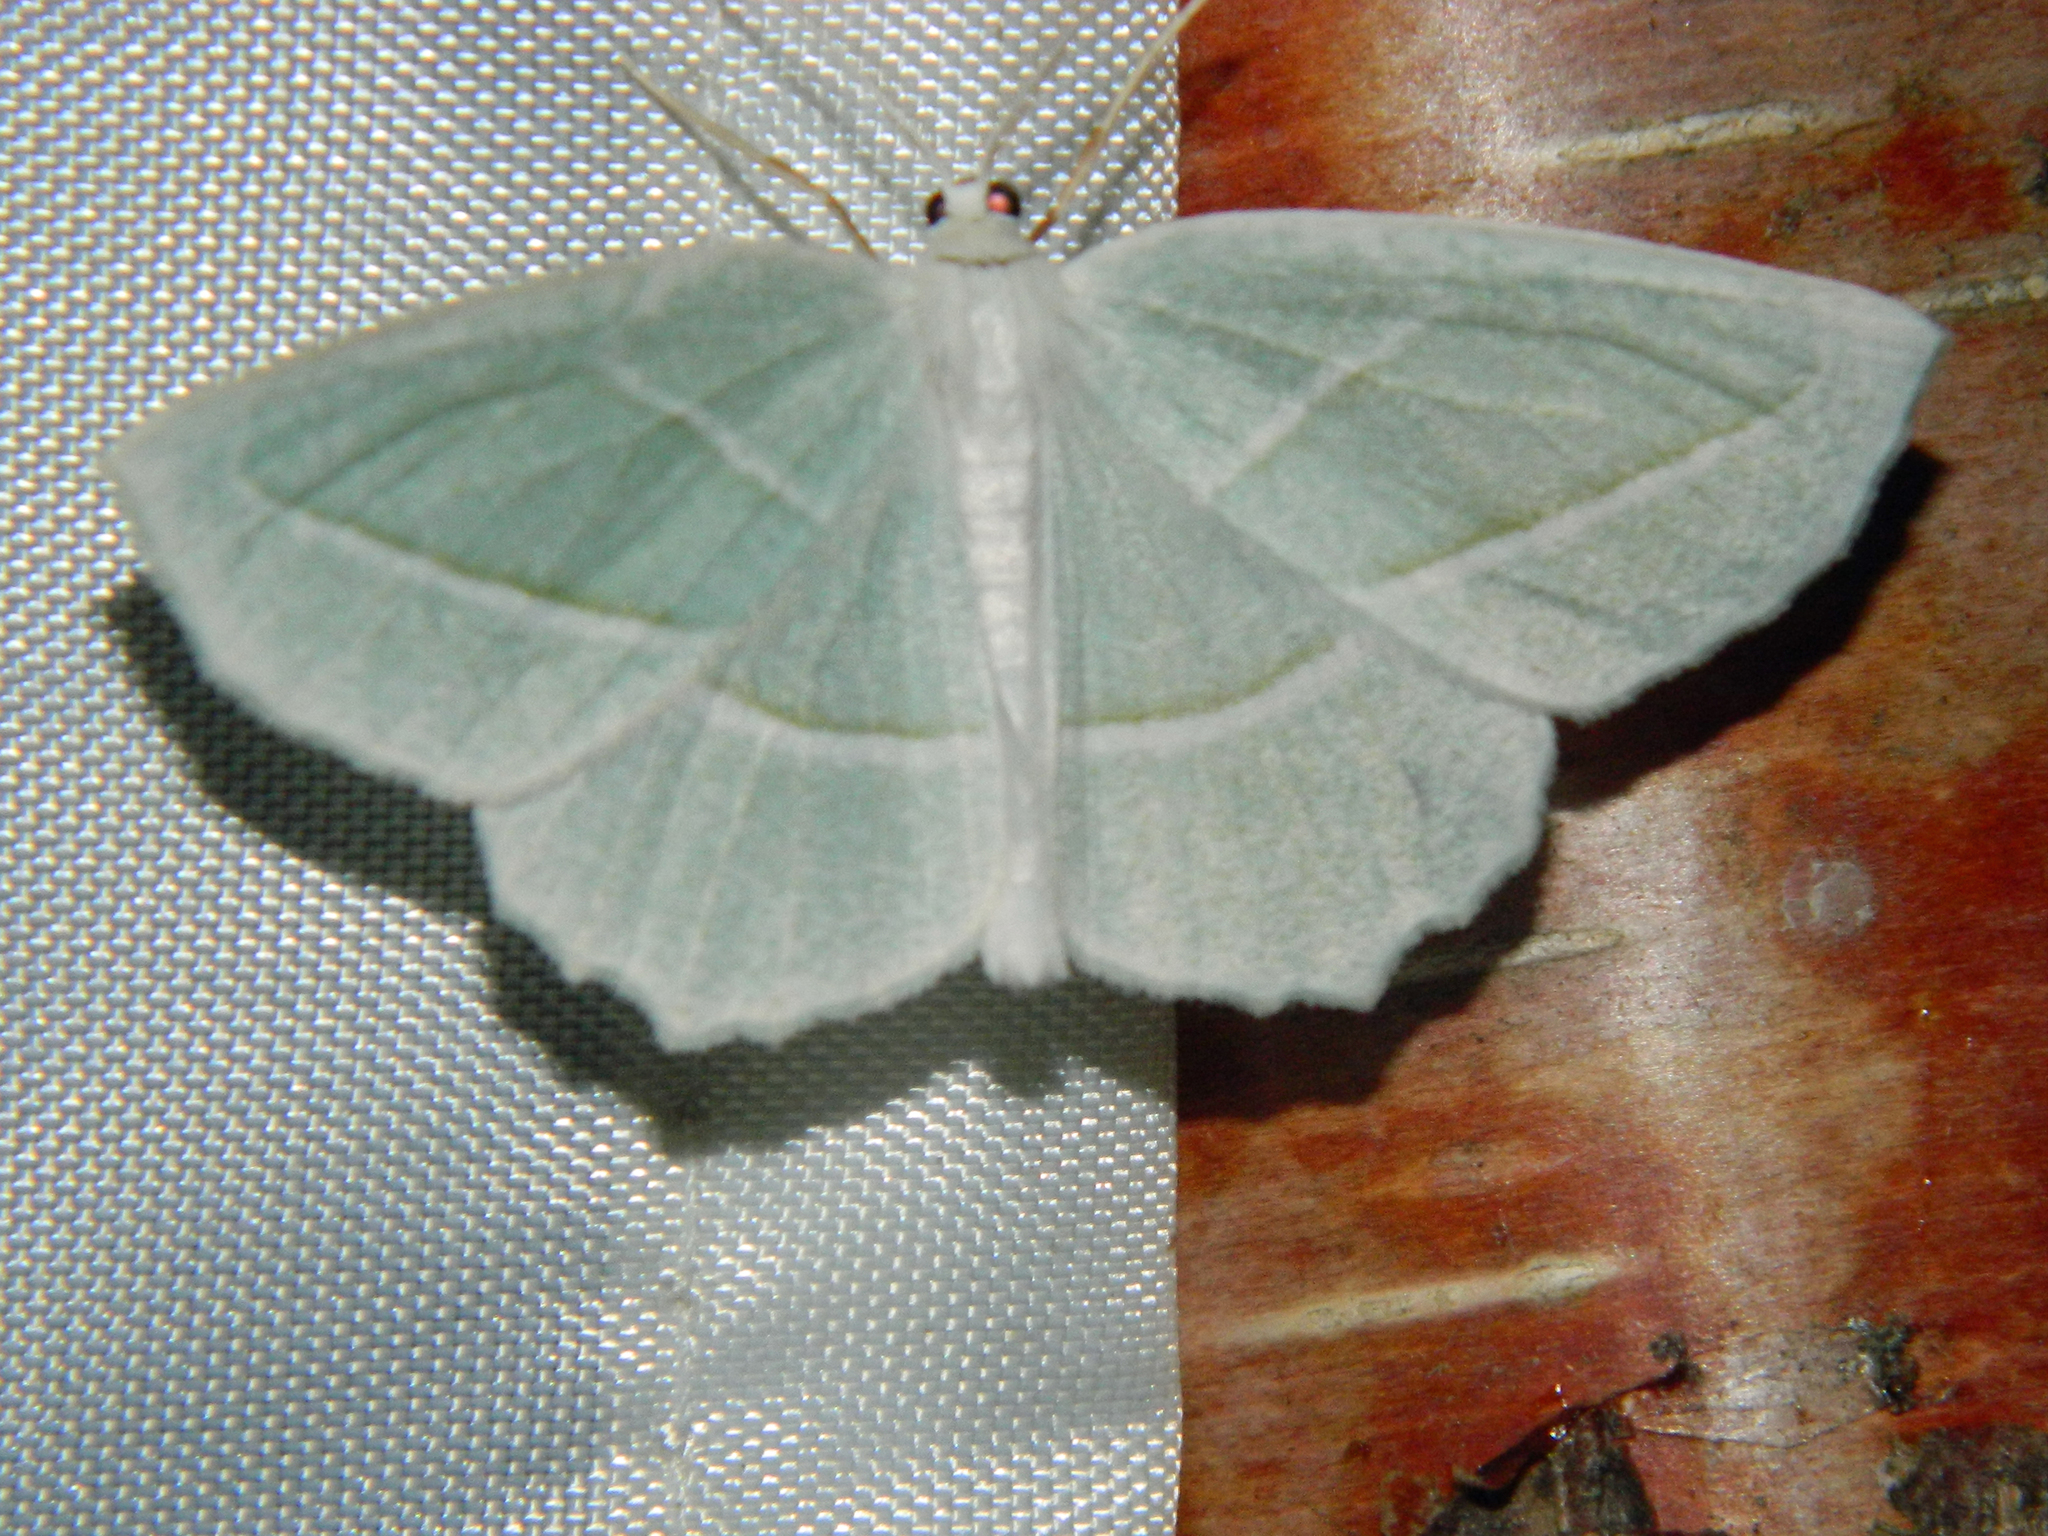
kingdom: Animalia
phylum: Arthropoda
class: Insecta
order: Lepidoptera
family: Geometridae
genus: Campaea
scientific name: Campaea perlata
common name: Fringed looper
